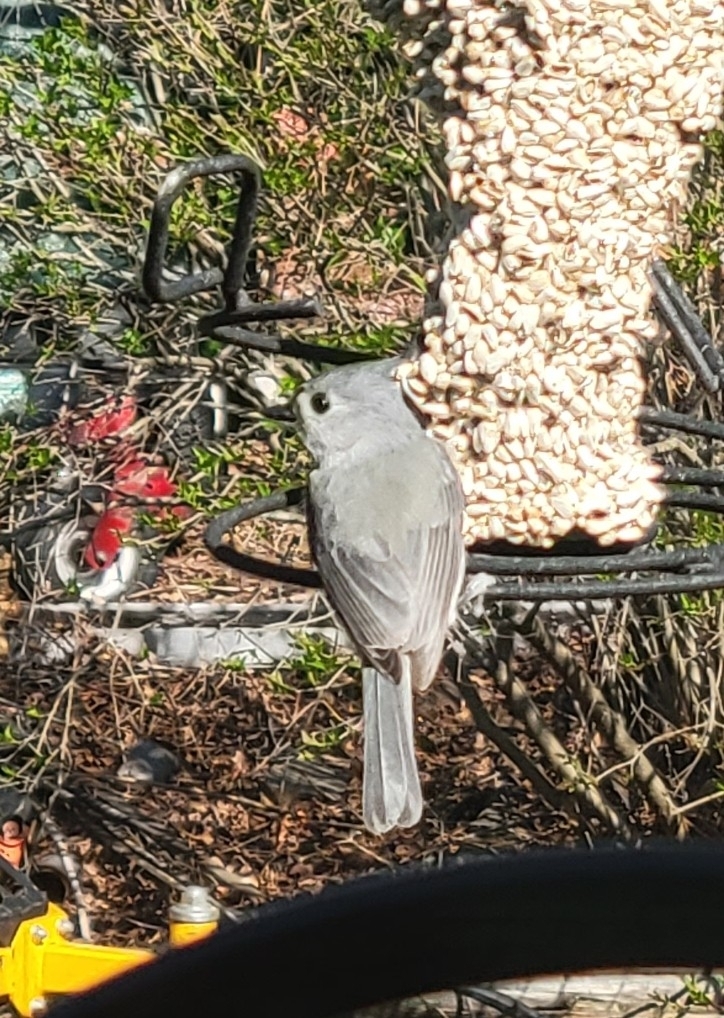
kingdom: Animalia
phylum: Chordata
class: Aves
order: Passeriformes
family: Paridae
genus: Baeolophus
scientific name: Baeolophus bicolor
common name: Tufted titmouse
